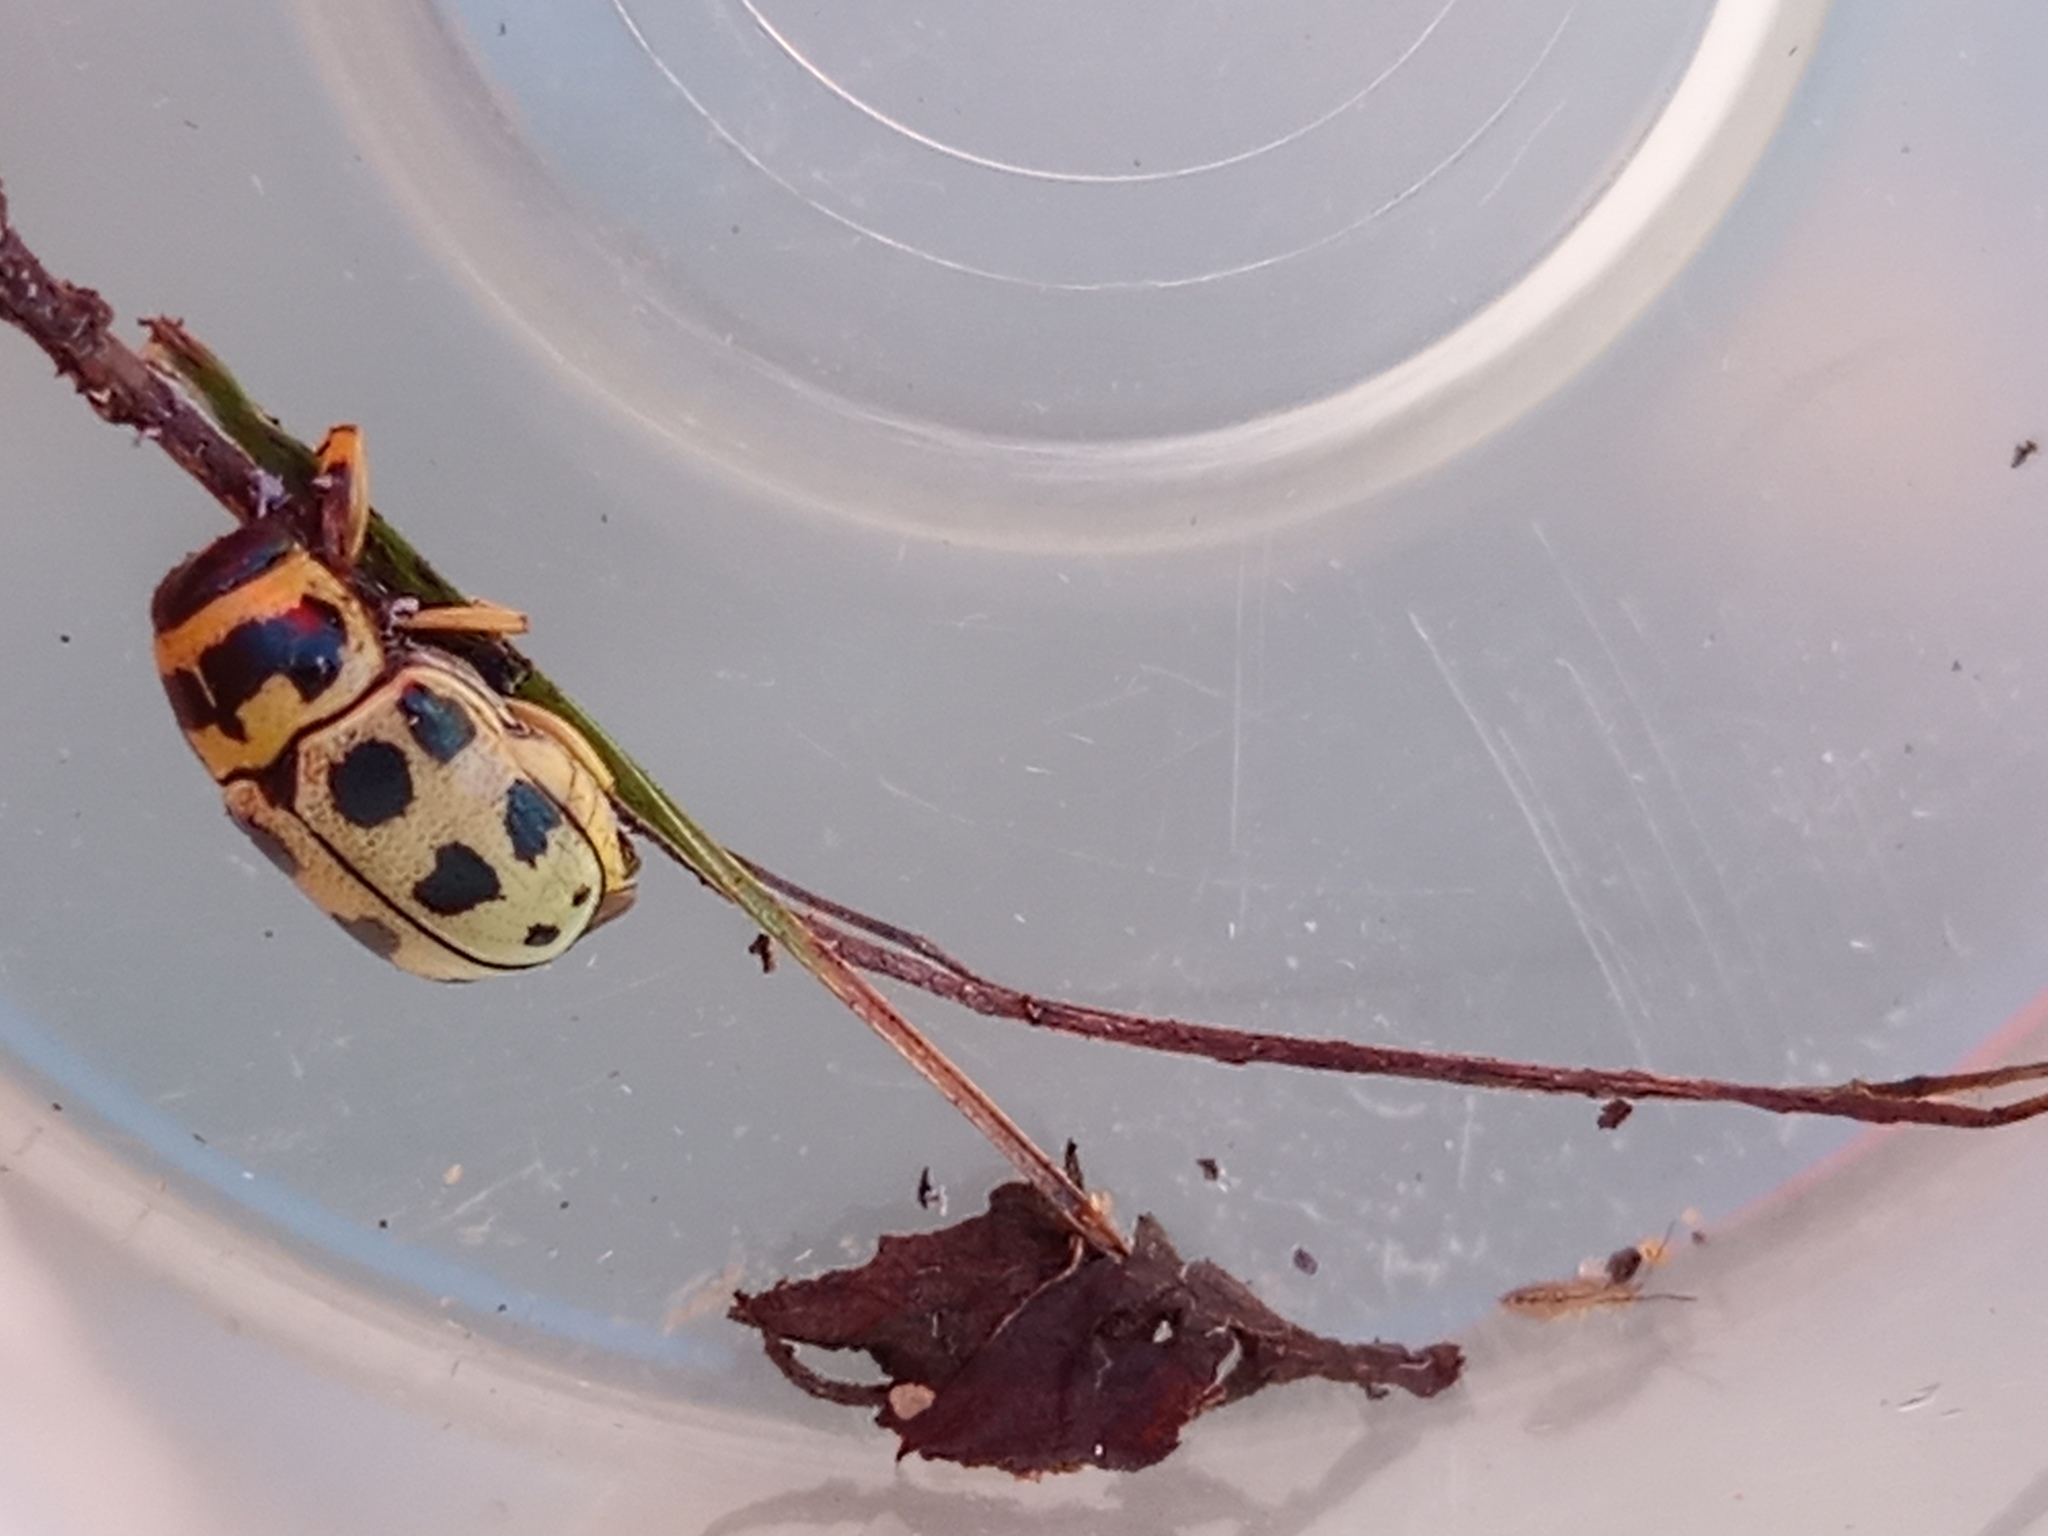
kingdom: Animalia
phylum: Arthropoda
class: Insecta
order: Coleoptera
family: Chrysomelidae
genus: Metallactus
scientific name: Metallactus pollens
